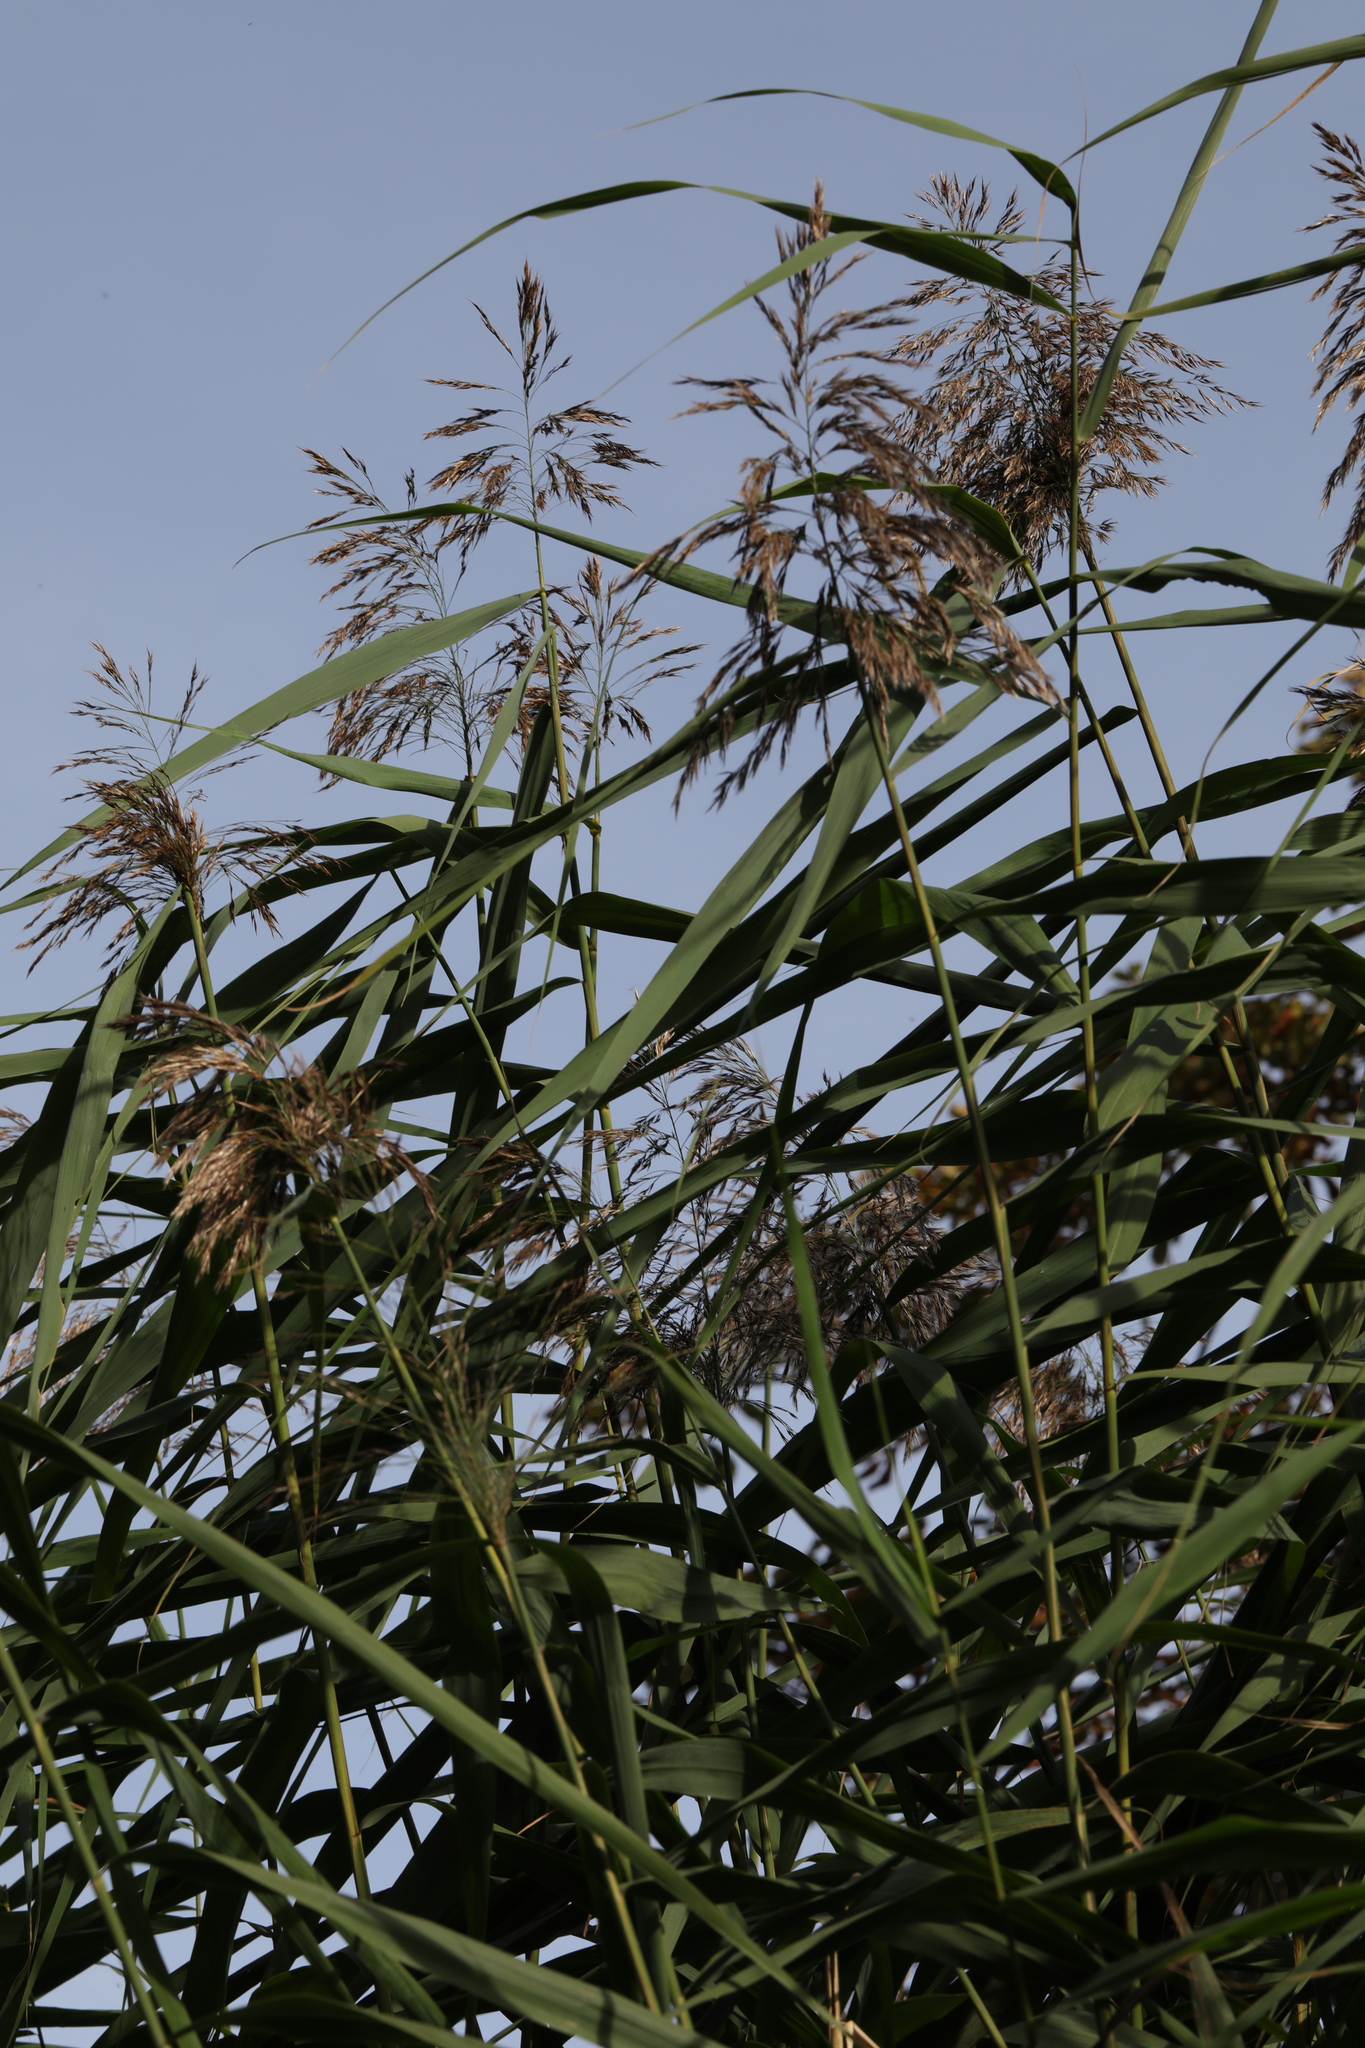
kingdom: Plantae
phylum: Tracheophyta
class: Liliopsida
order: Poales
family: Poaceae
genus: Phragmites
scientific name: Phragmites australis
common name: Common reed
